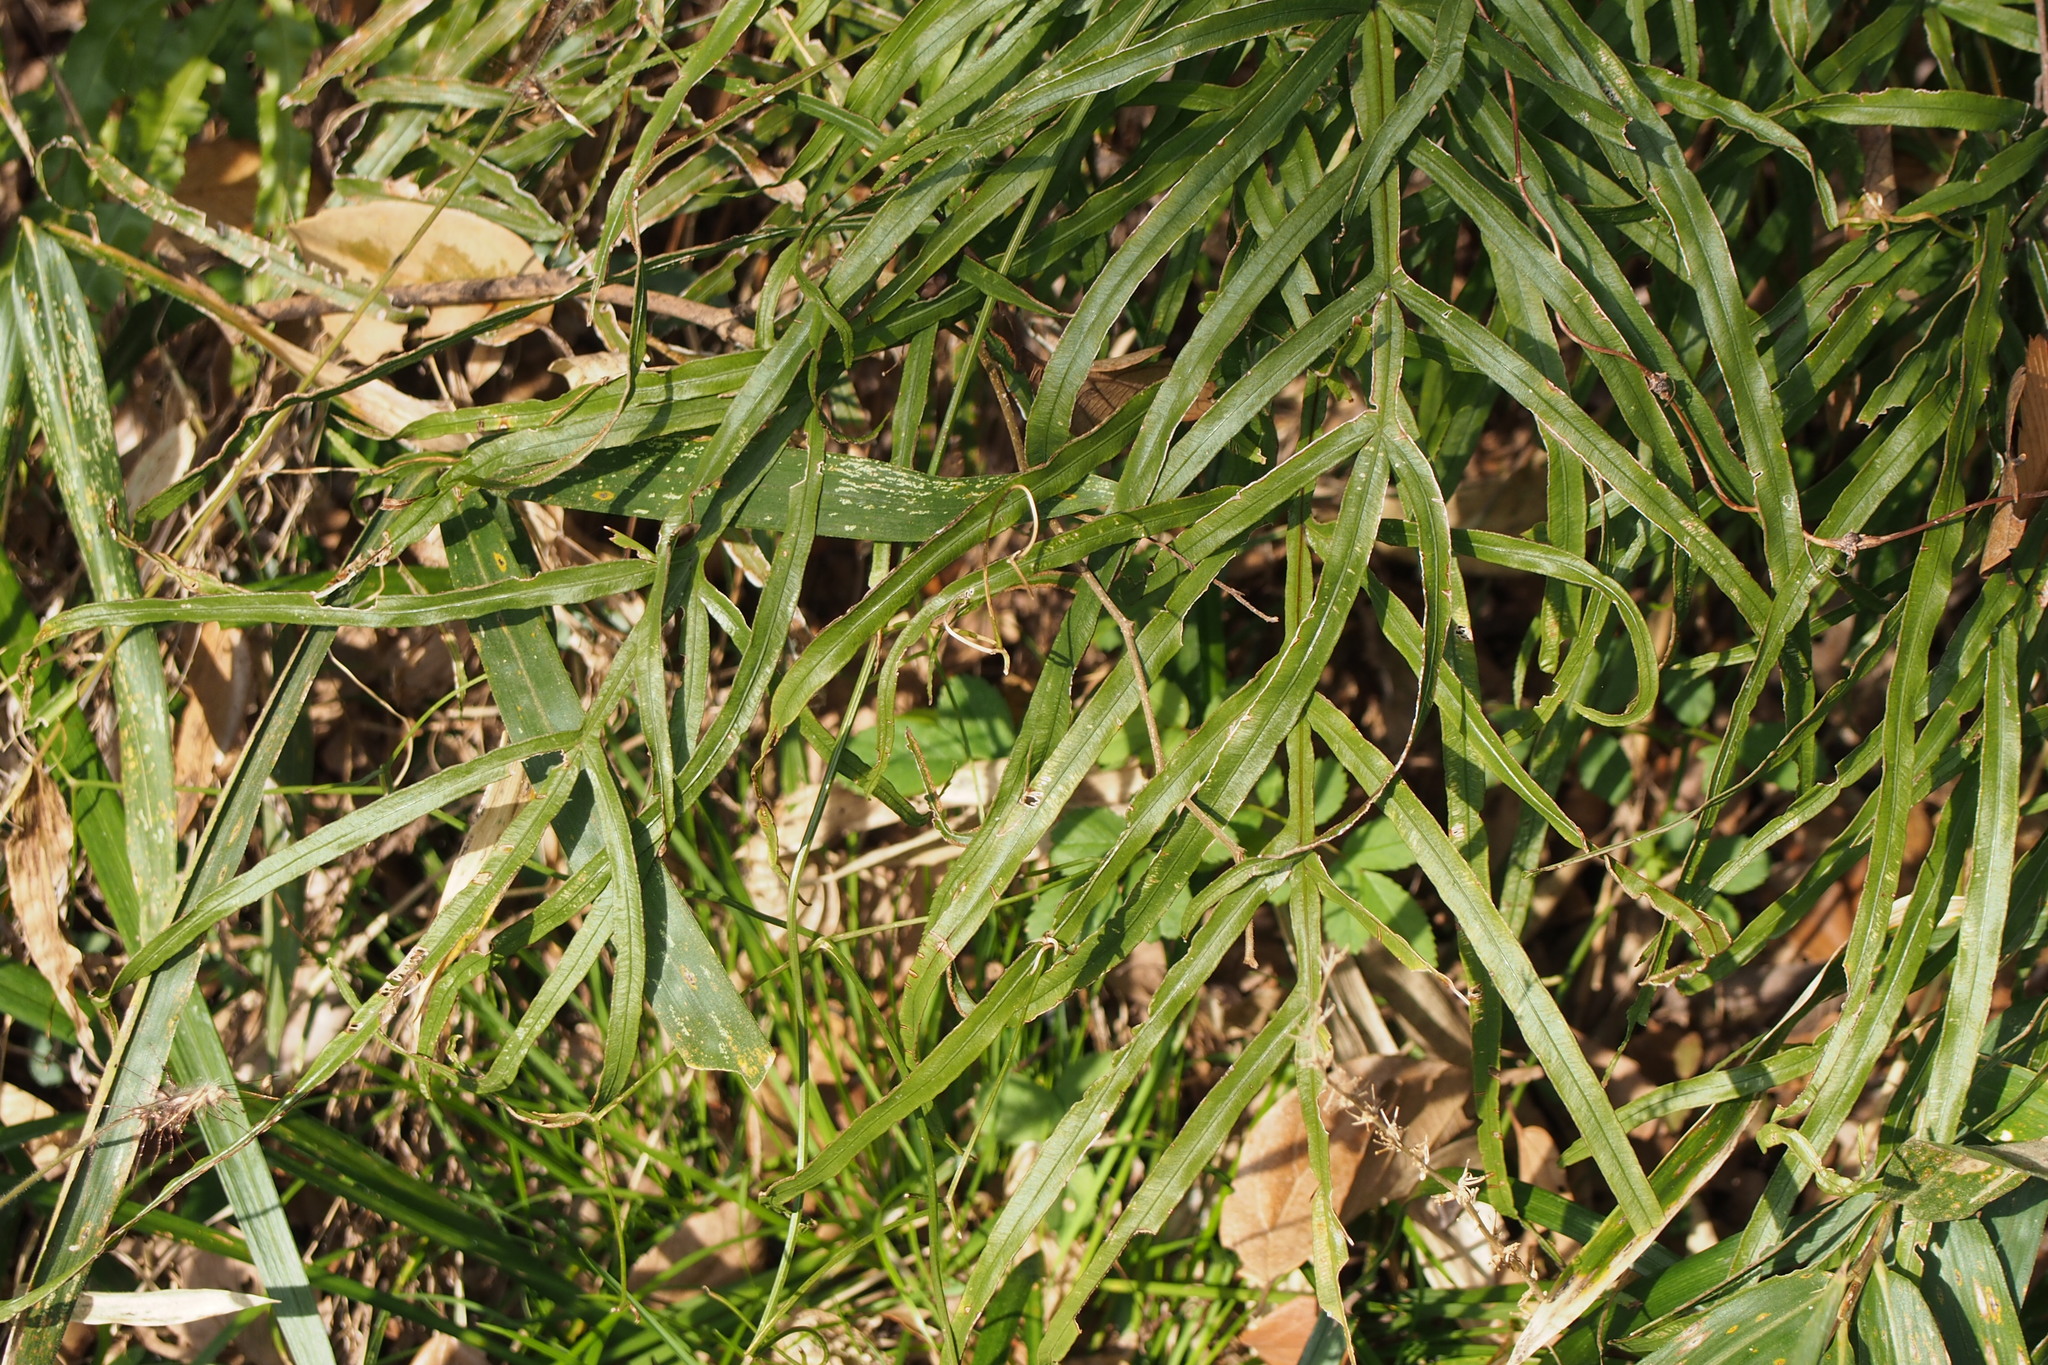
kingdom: Plantae
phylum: Tracheophyta
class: Polypodiopsida
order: Polypodiales
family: Pteridaceae
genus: Pteris
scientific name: Pteris multifida
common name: Spider brake
